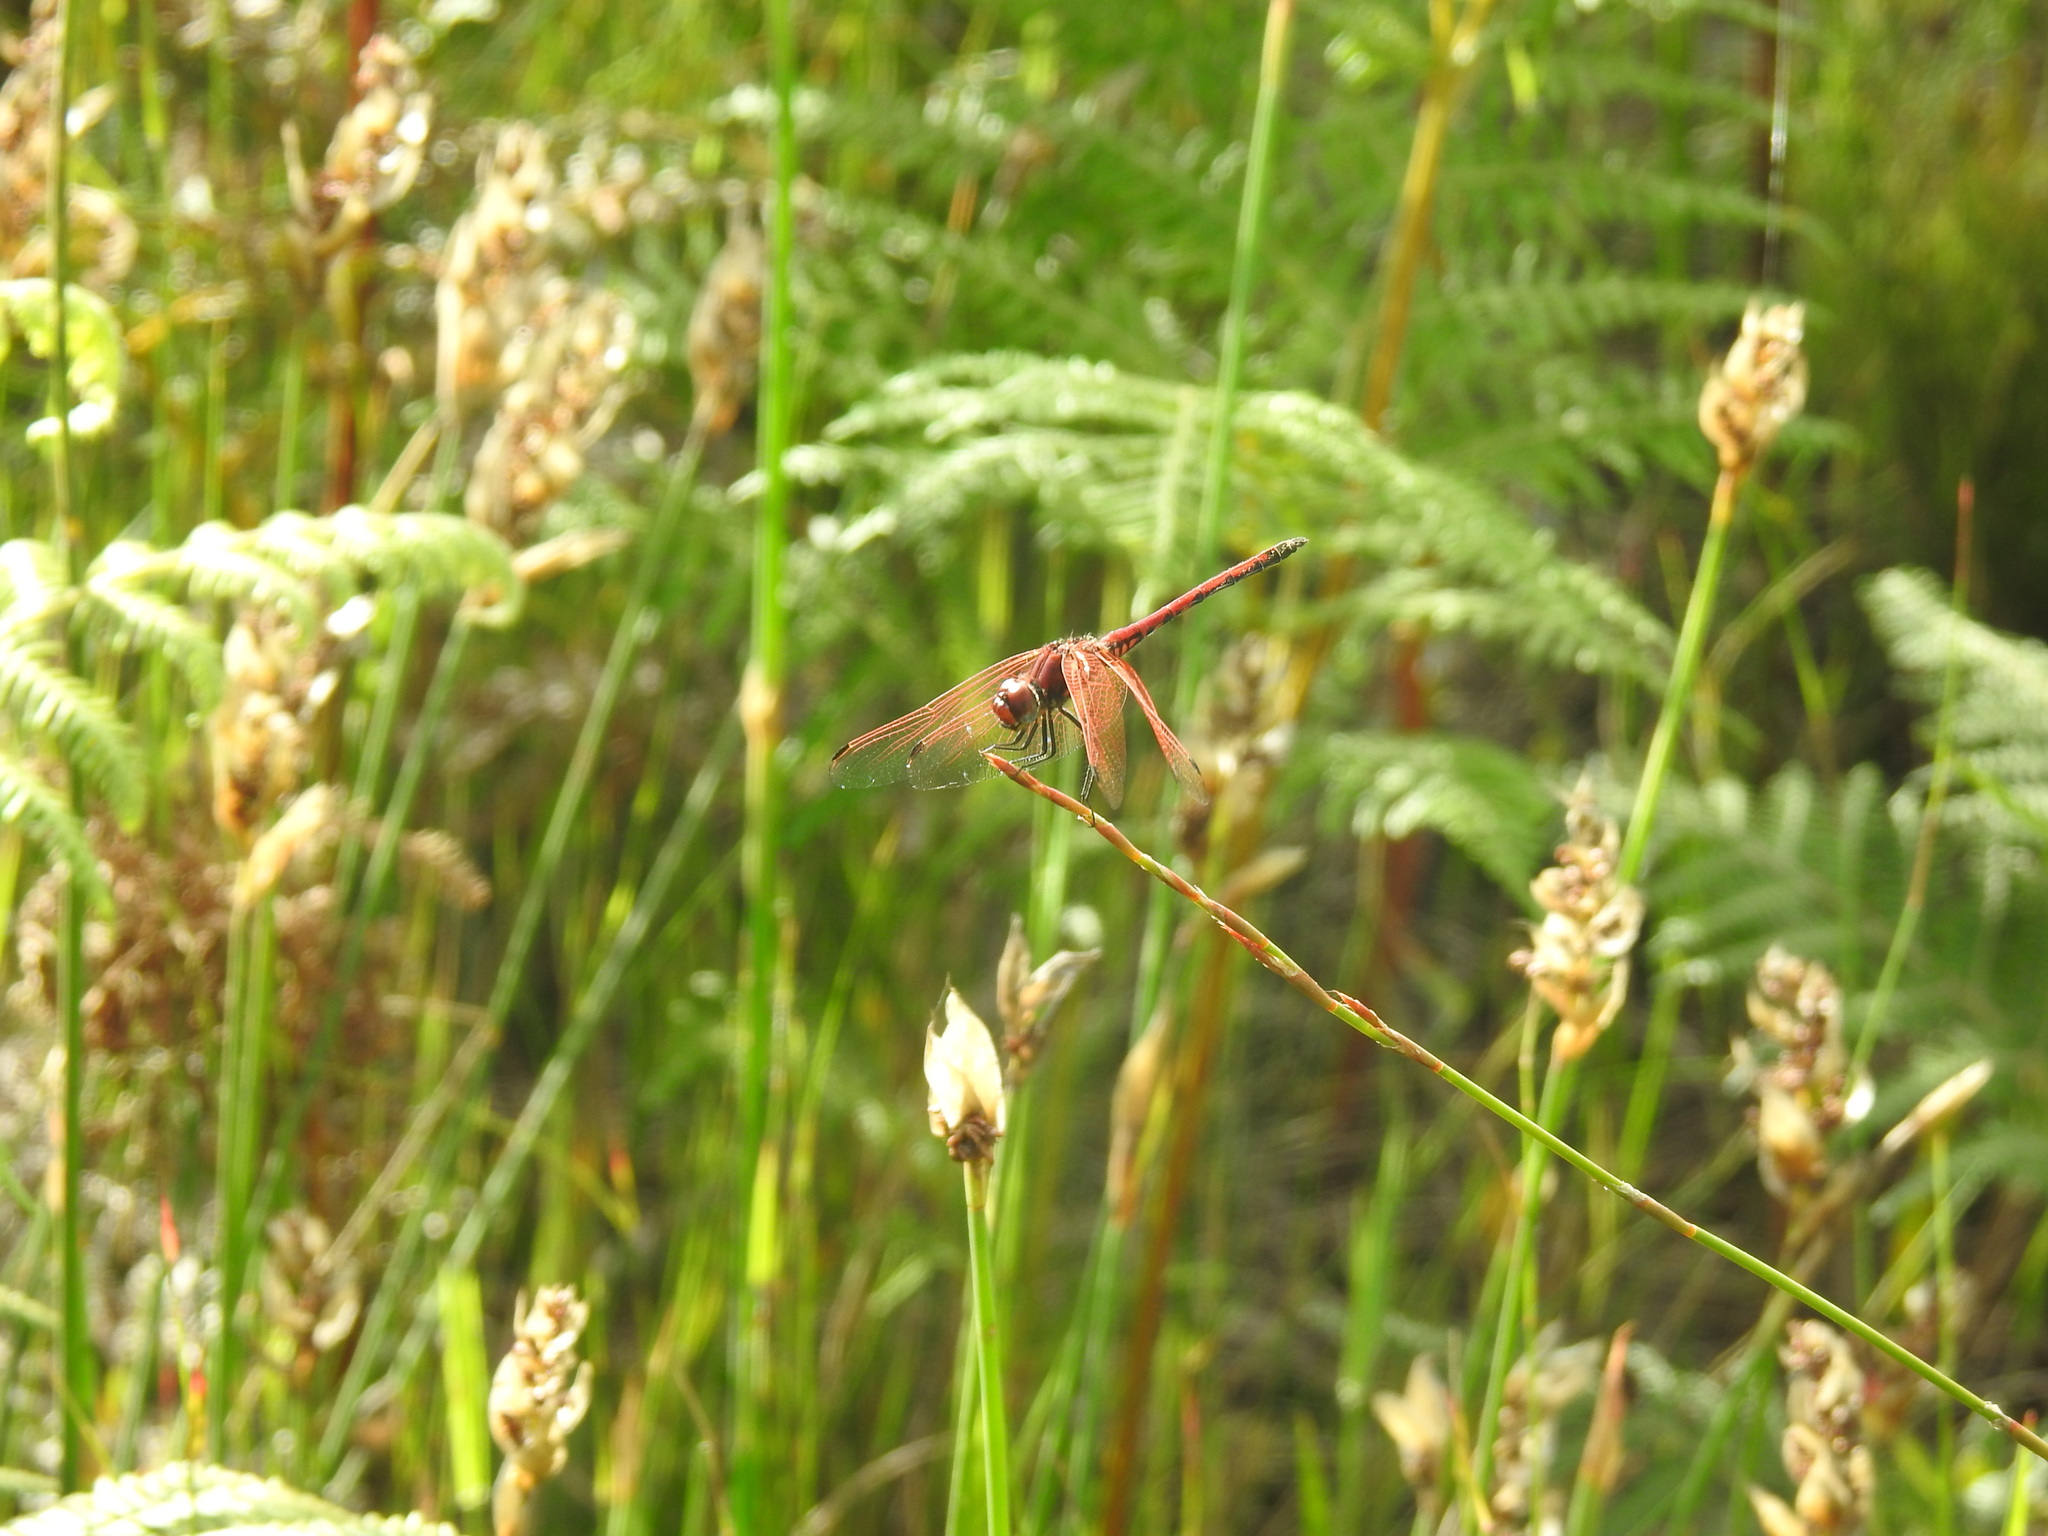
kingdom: Animalia
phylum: Arthropoda
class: Insecta
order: Odonata
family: Libellulidae
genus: Trithemis
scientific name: Trithemis arteriosa
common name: Red-veined dropwing
